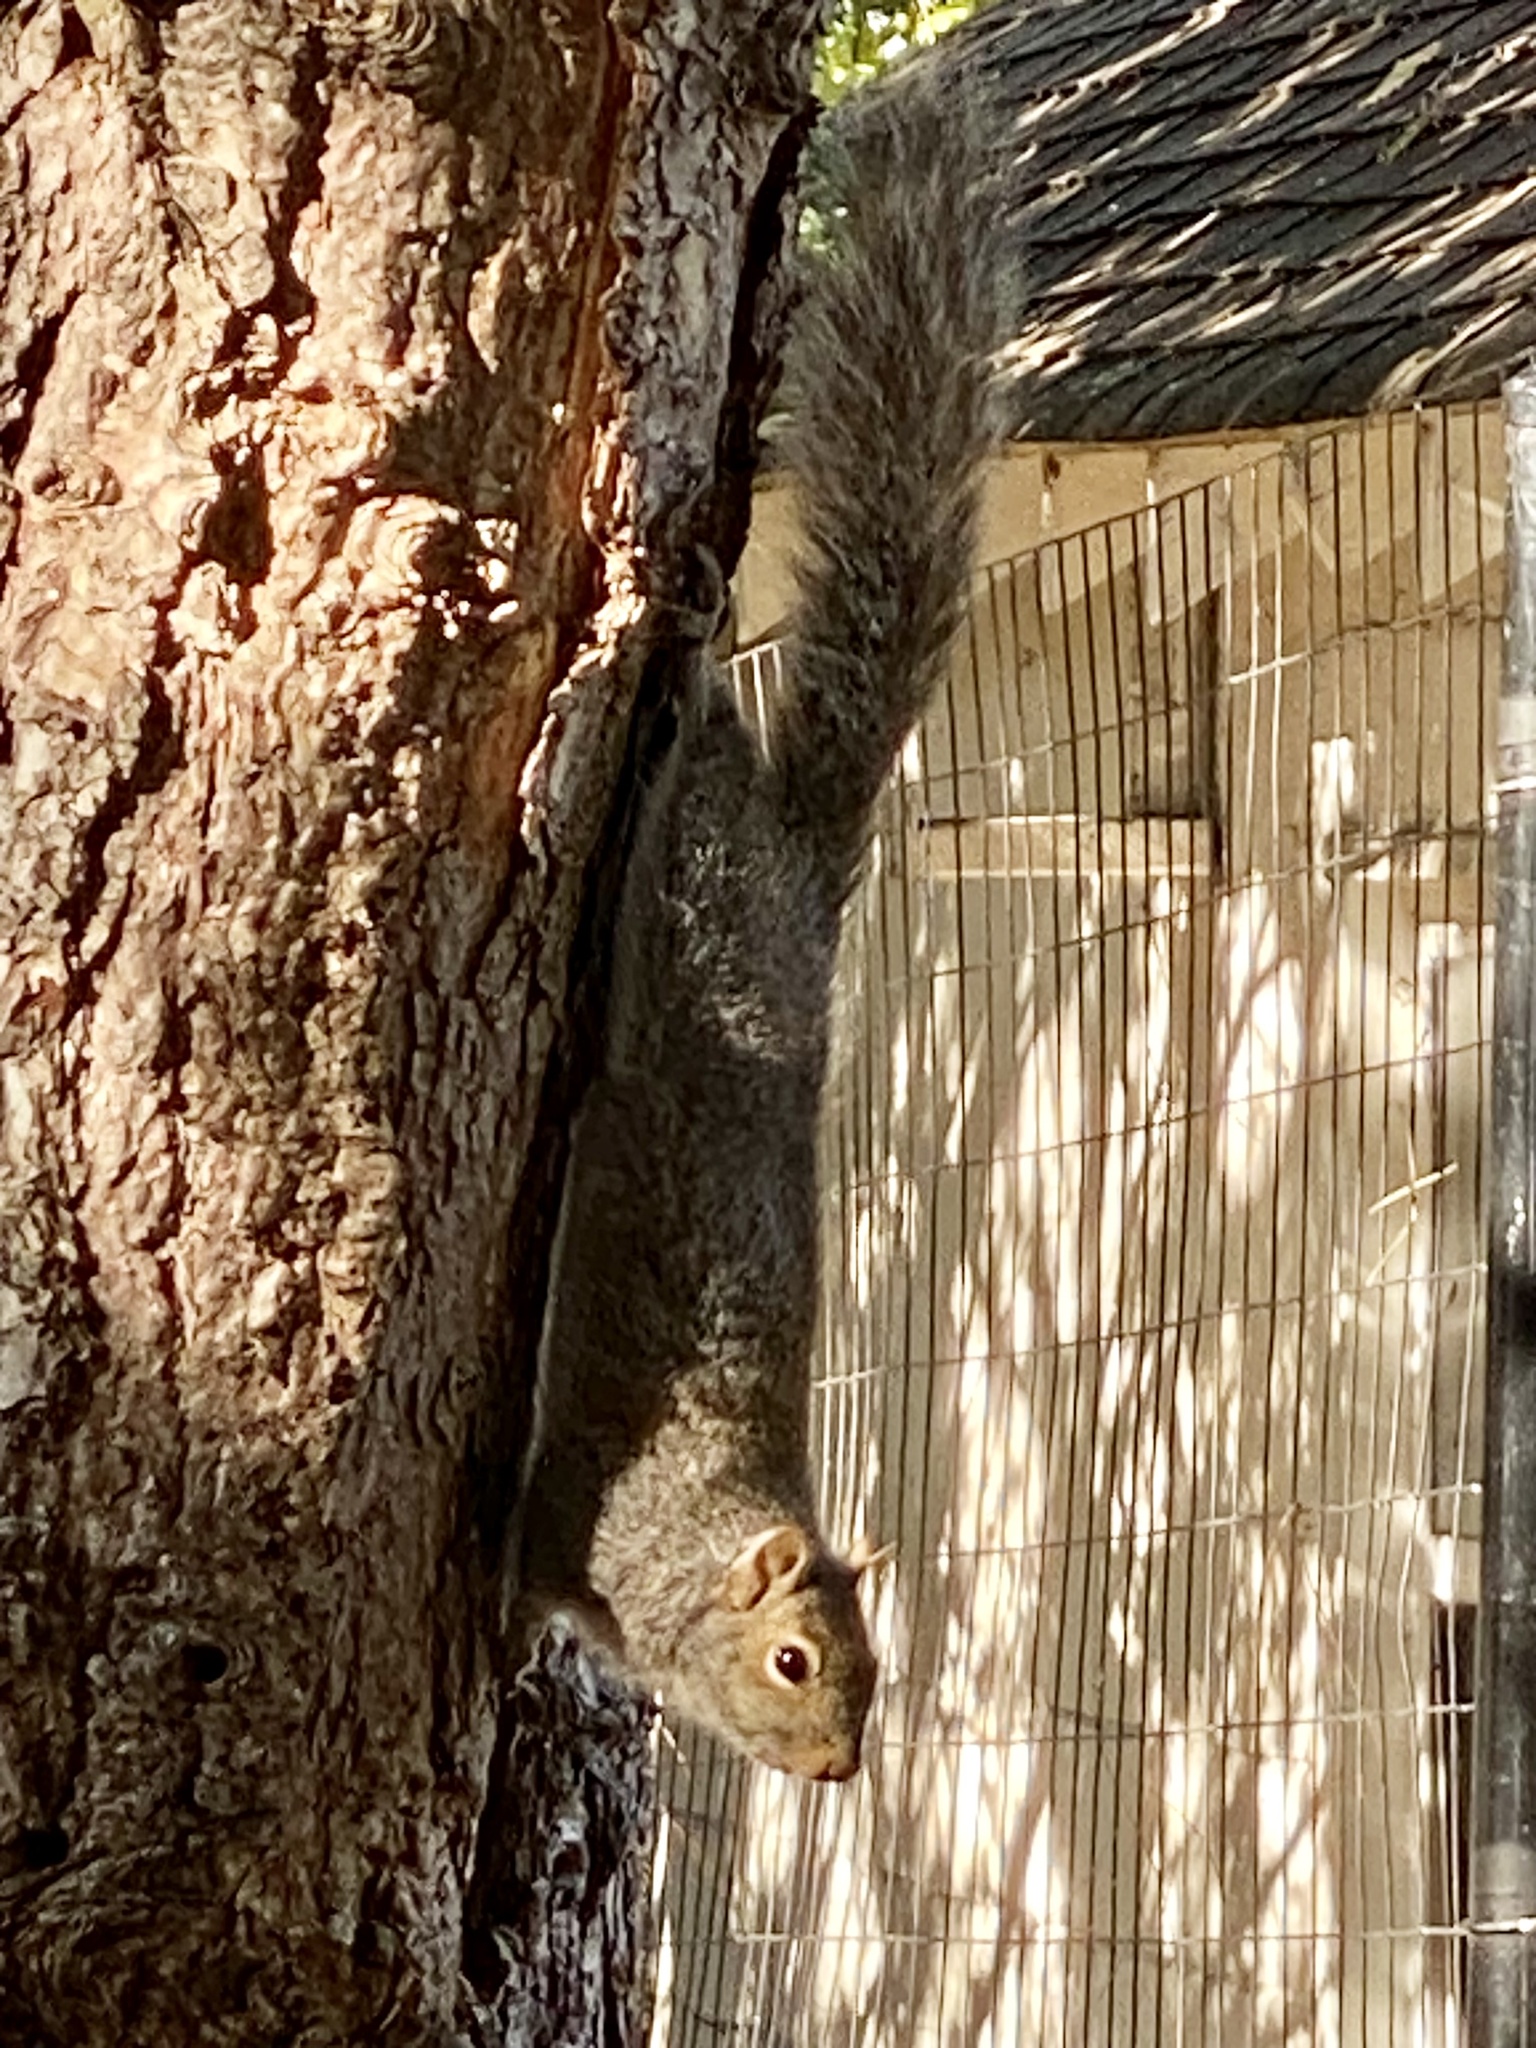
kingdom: Animalia
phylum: Chordata
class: Mammalia
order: Rodentia
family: Sciuridae
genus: Sciurus
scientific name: Sciurus carolinensis
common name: Eastern gray squirrel
